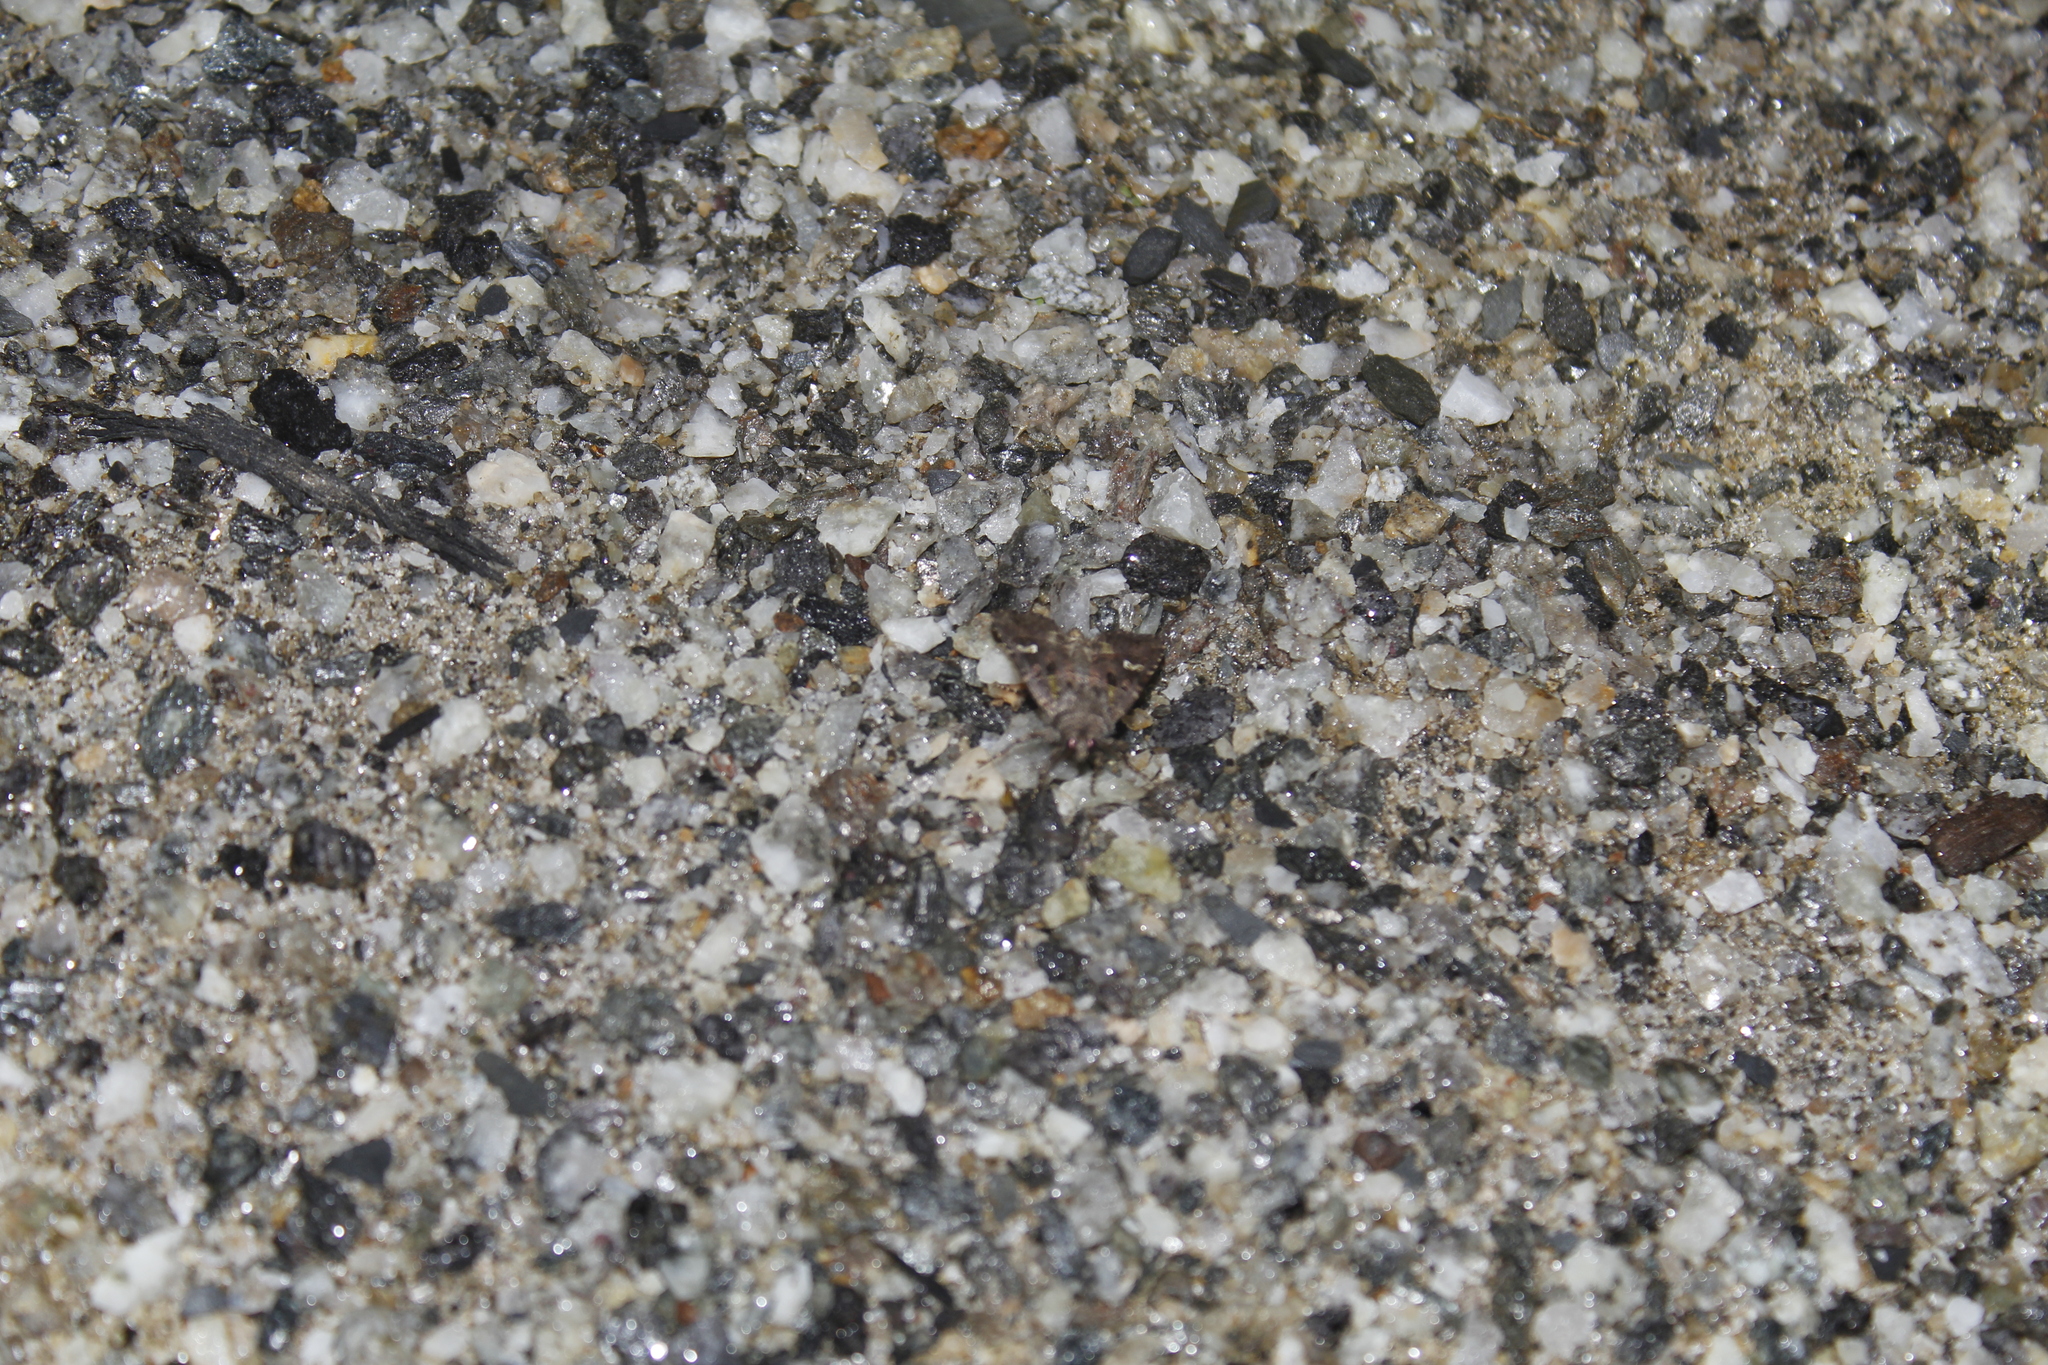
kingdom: Animalia
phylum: Arthropoda
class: Insecta
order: Lepidoptera
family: Noctuidae
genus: Lacinipolia
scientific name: Lacinipolia renigera
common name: Kidney-spotted minor
